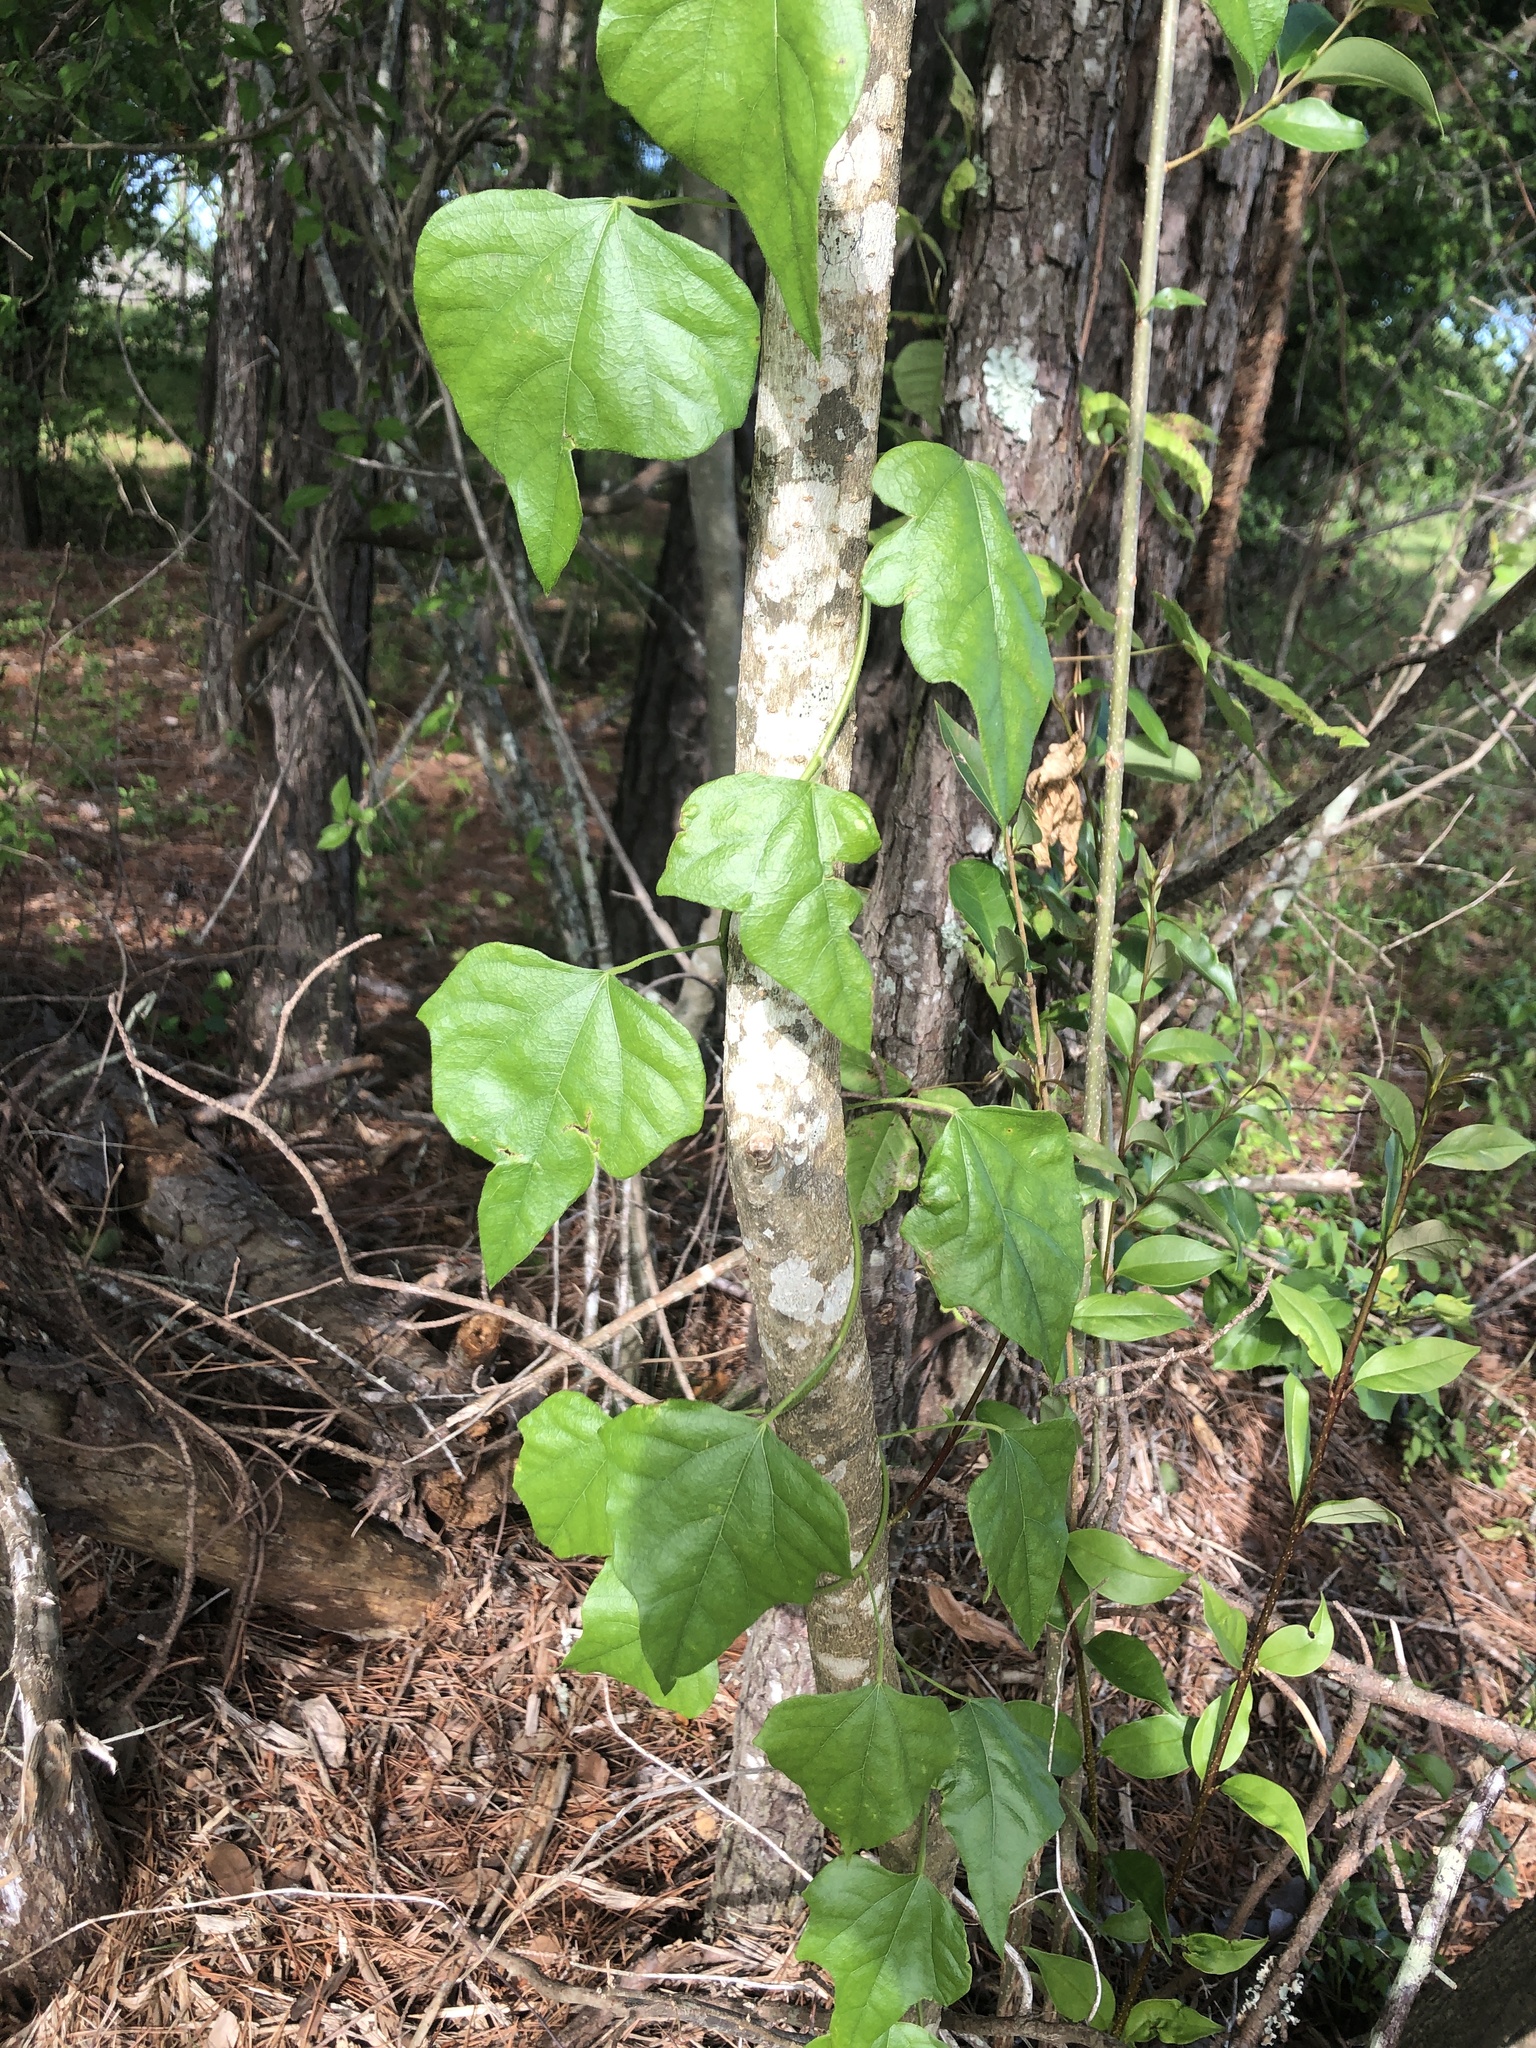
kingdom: Plantae
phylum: Tracheophyta
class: Magnoliopsida
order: Ranunculales
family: Menispermaceae
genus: Cocculus
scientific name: Cocculus carolinus
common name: Carolina moonseed
